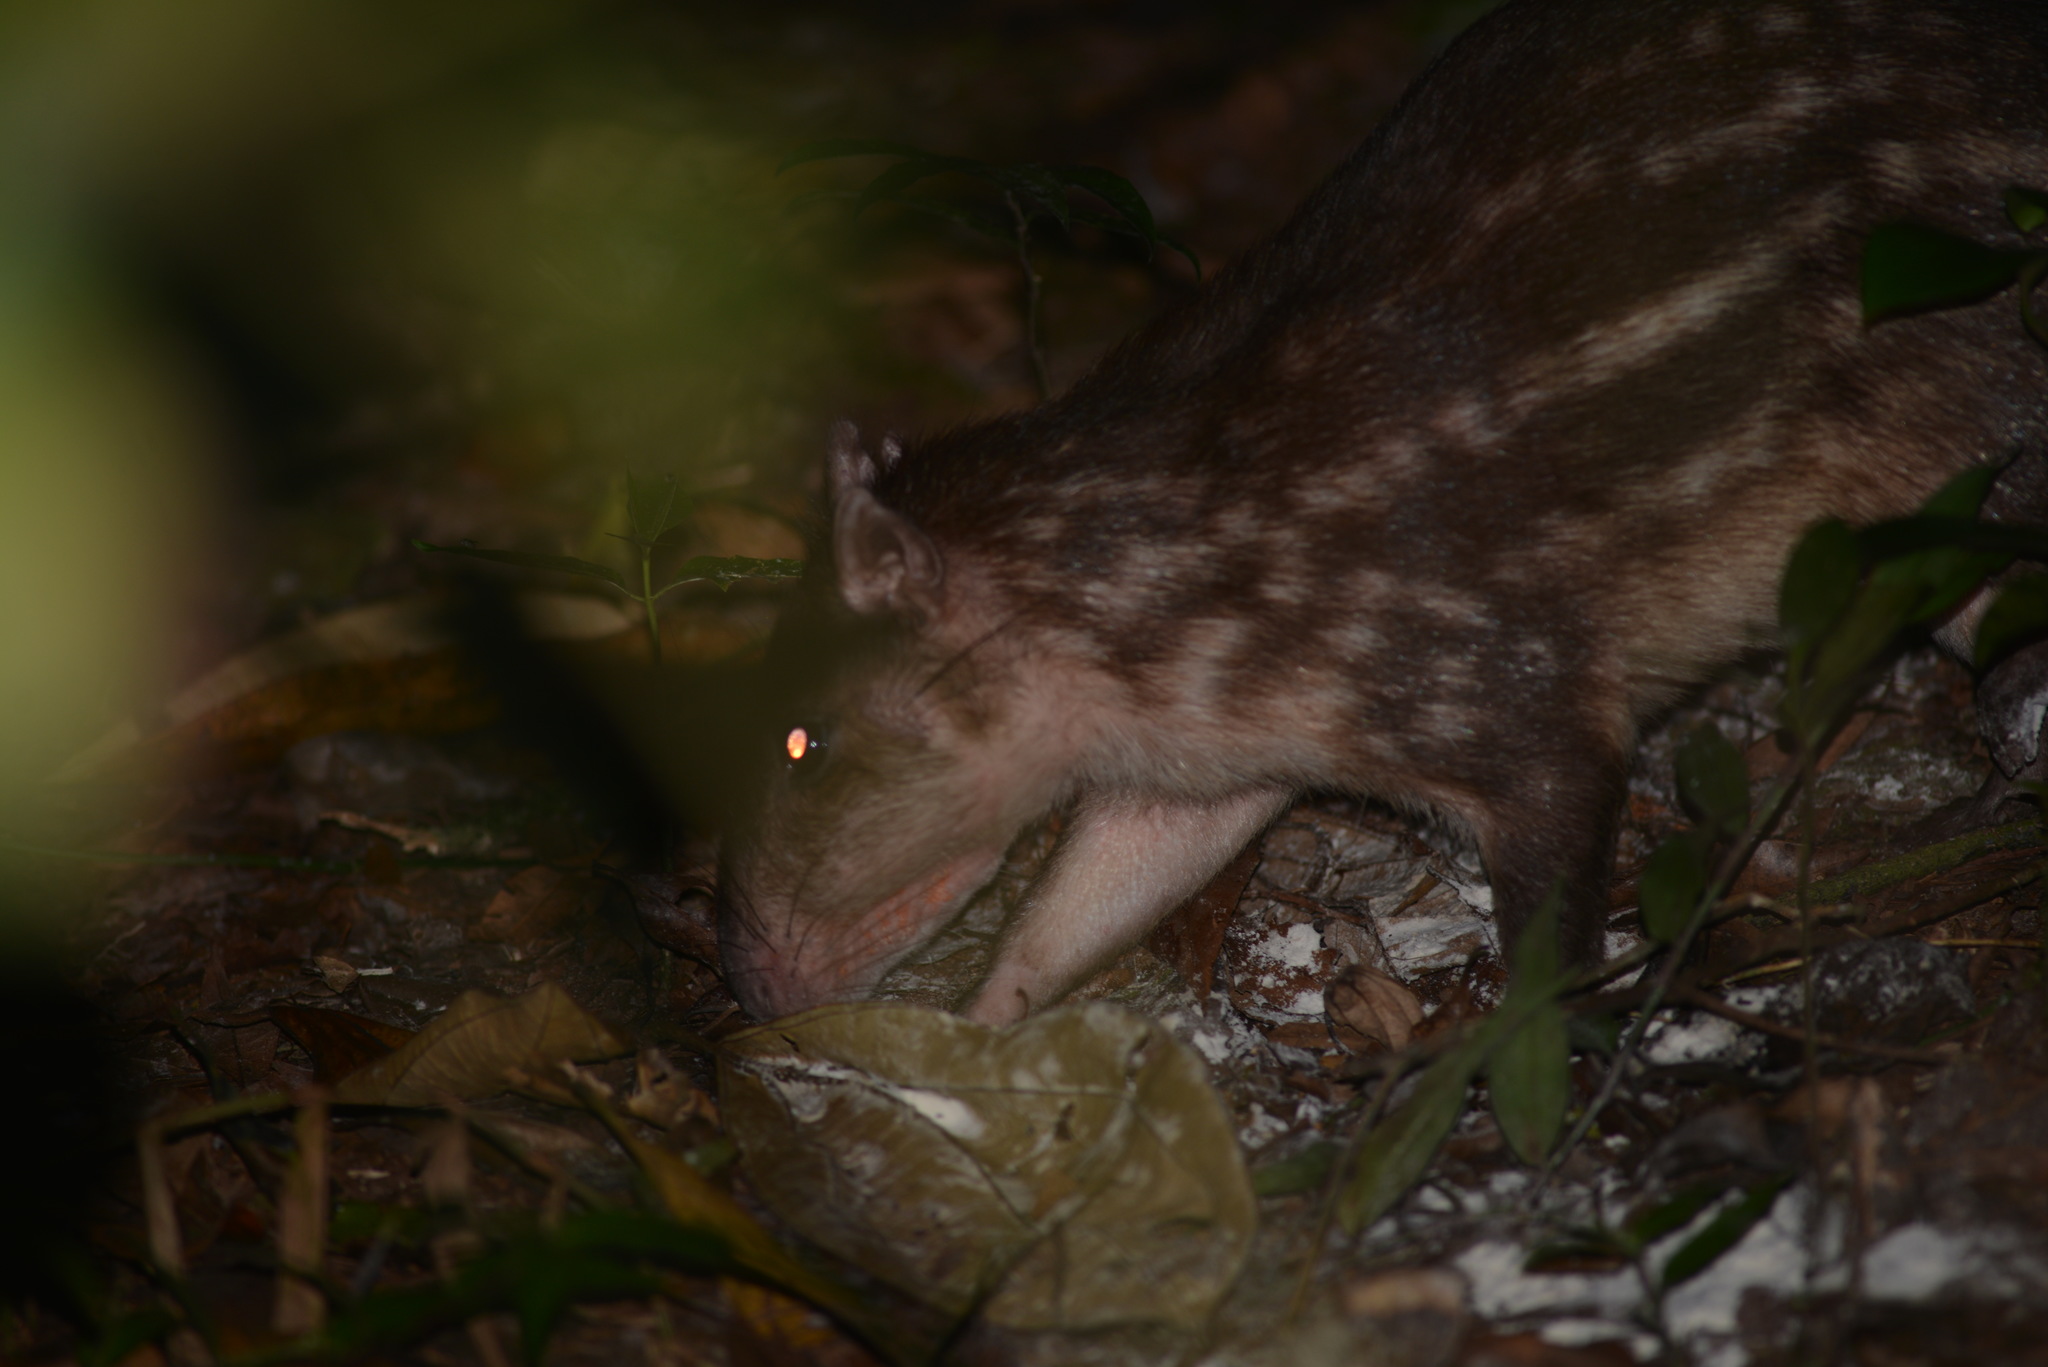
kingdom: Animalia
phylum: Chordata
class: Mammalia
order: Rodentia
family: Cuniculidae
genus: Cuniculus
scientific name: Cuniculus paca
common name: Lowland paca
